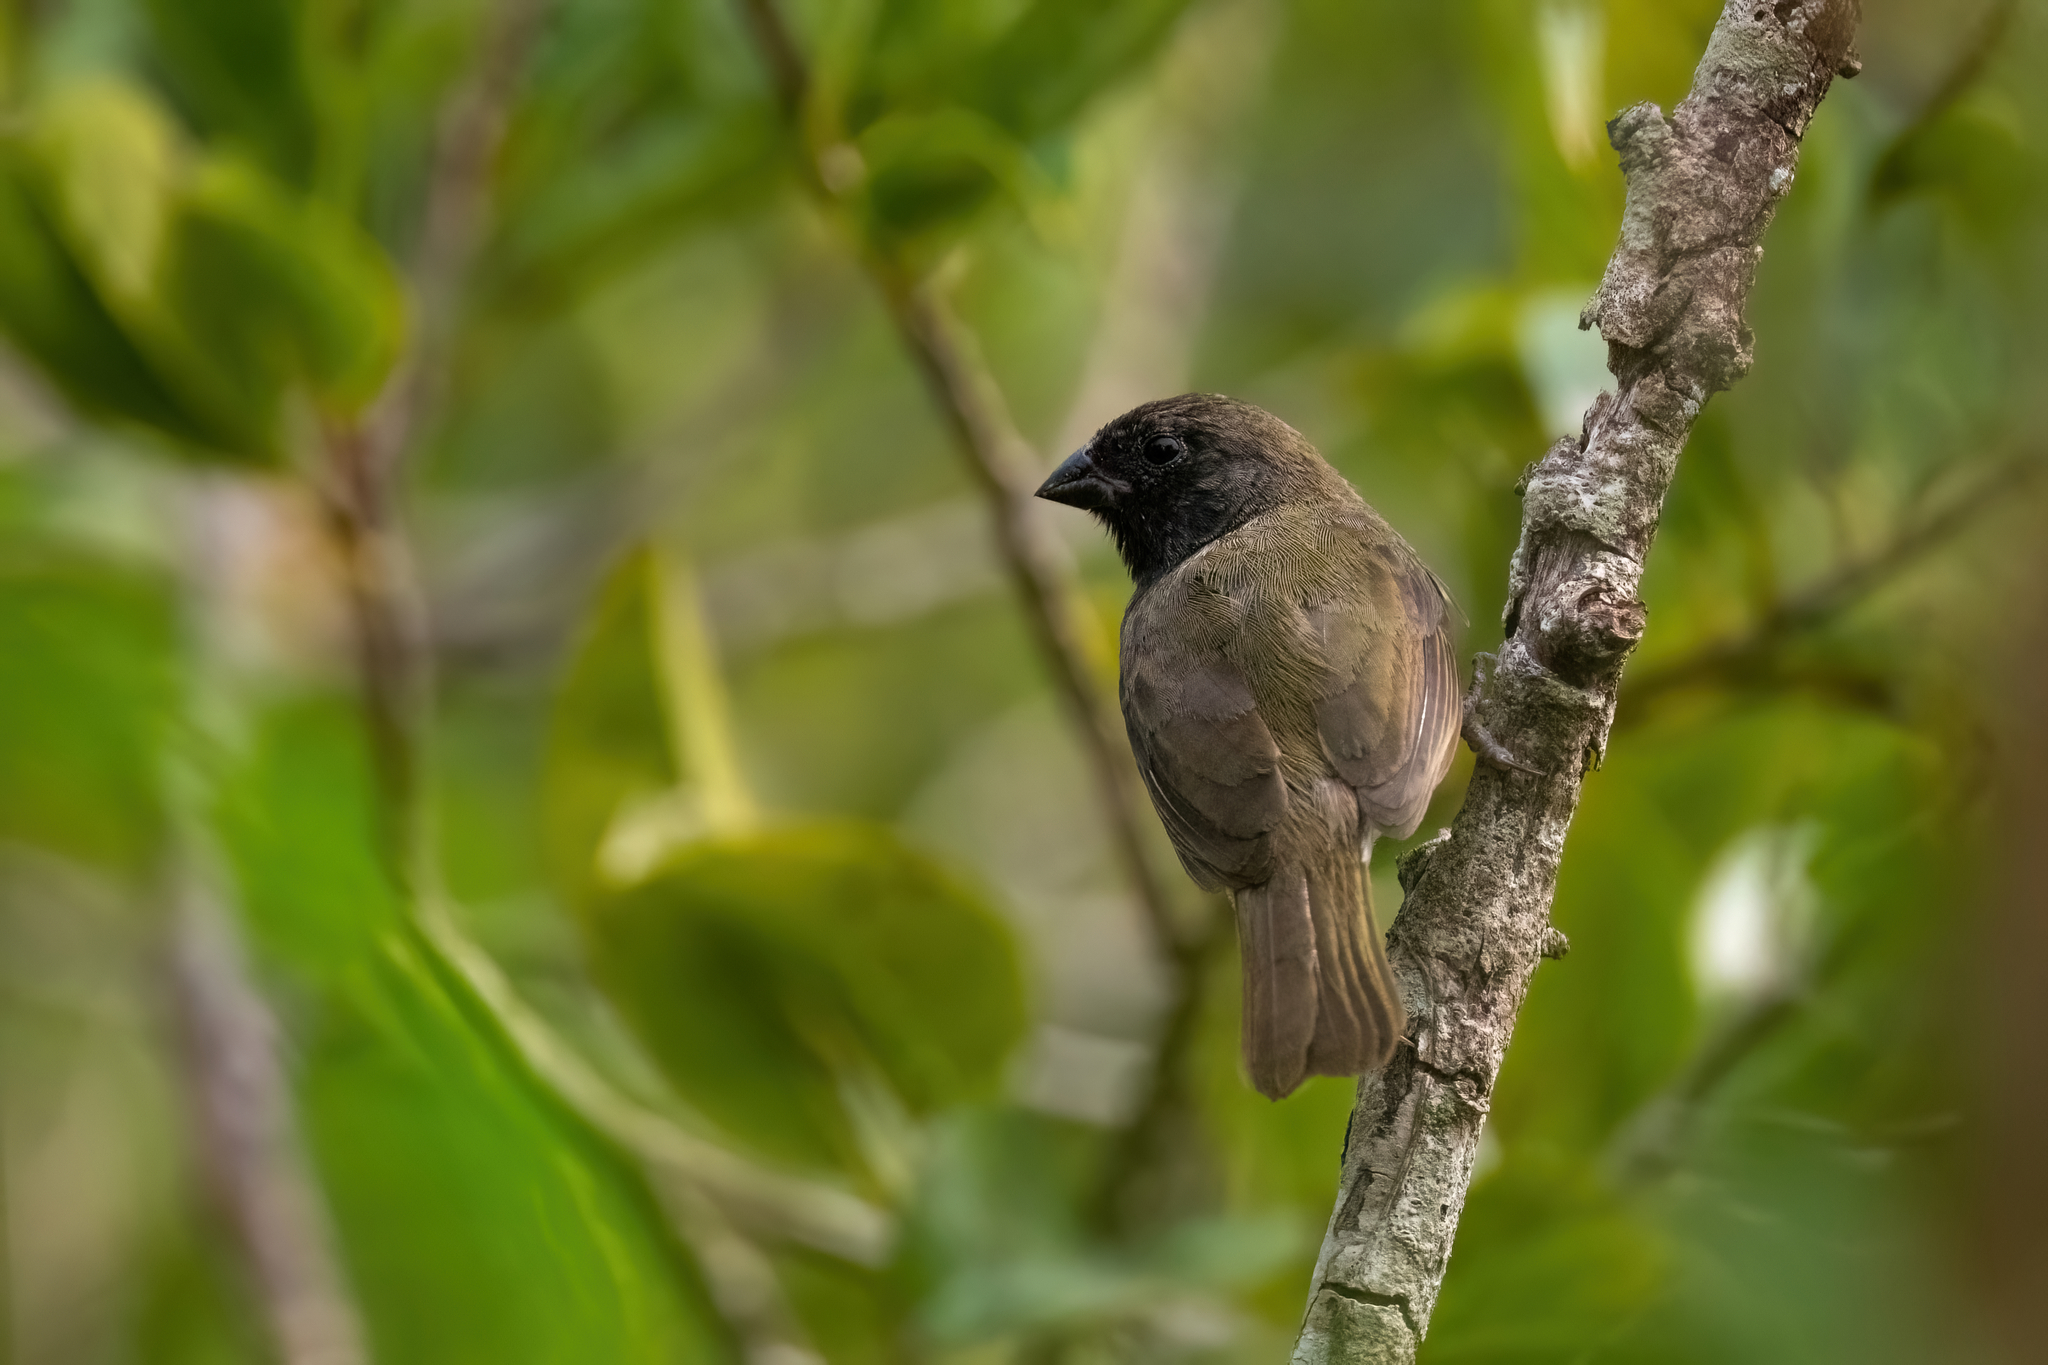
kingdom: Animalia
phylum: Chordata
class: Aves
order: Passeriformes
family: Thraupidae
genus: Melanospiza
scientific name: Melanospiza bicolor
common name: Black-faced grassquit
